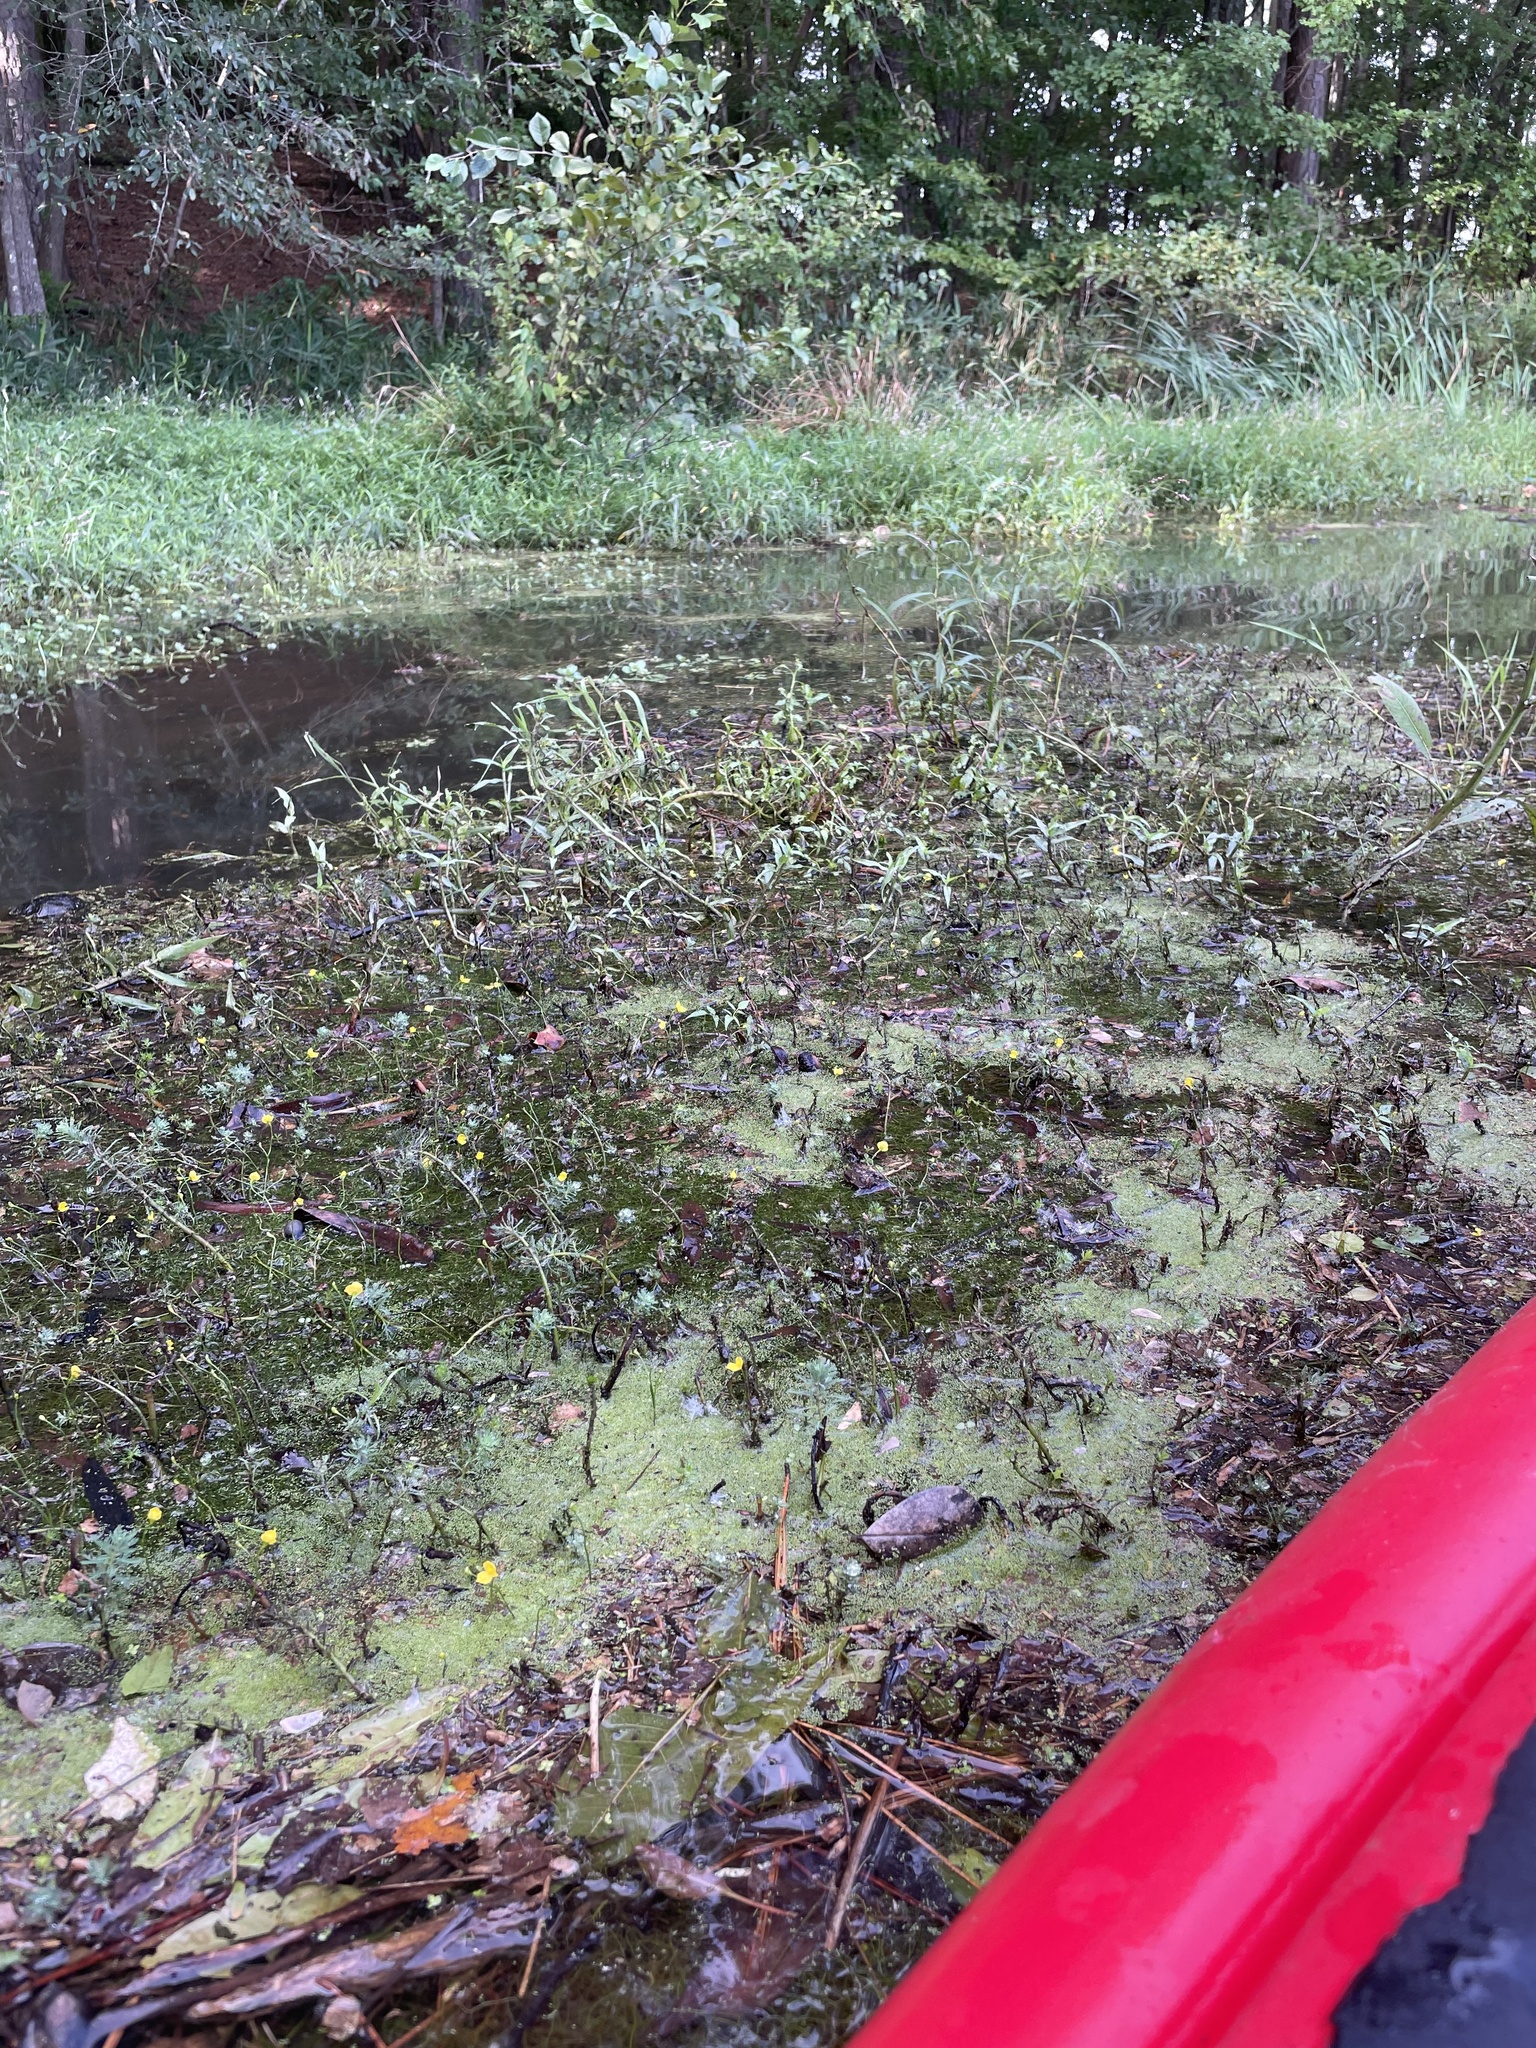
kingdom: Plantae
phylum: Tracheophyta
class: Liliopsida
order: Alismatales
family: Araceae
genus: Wolffia
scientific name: Wolffia brasiliensis
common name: Brazilian watermeal
